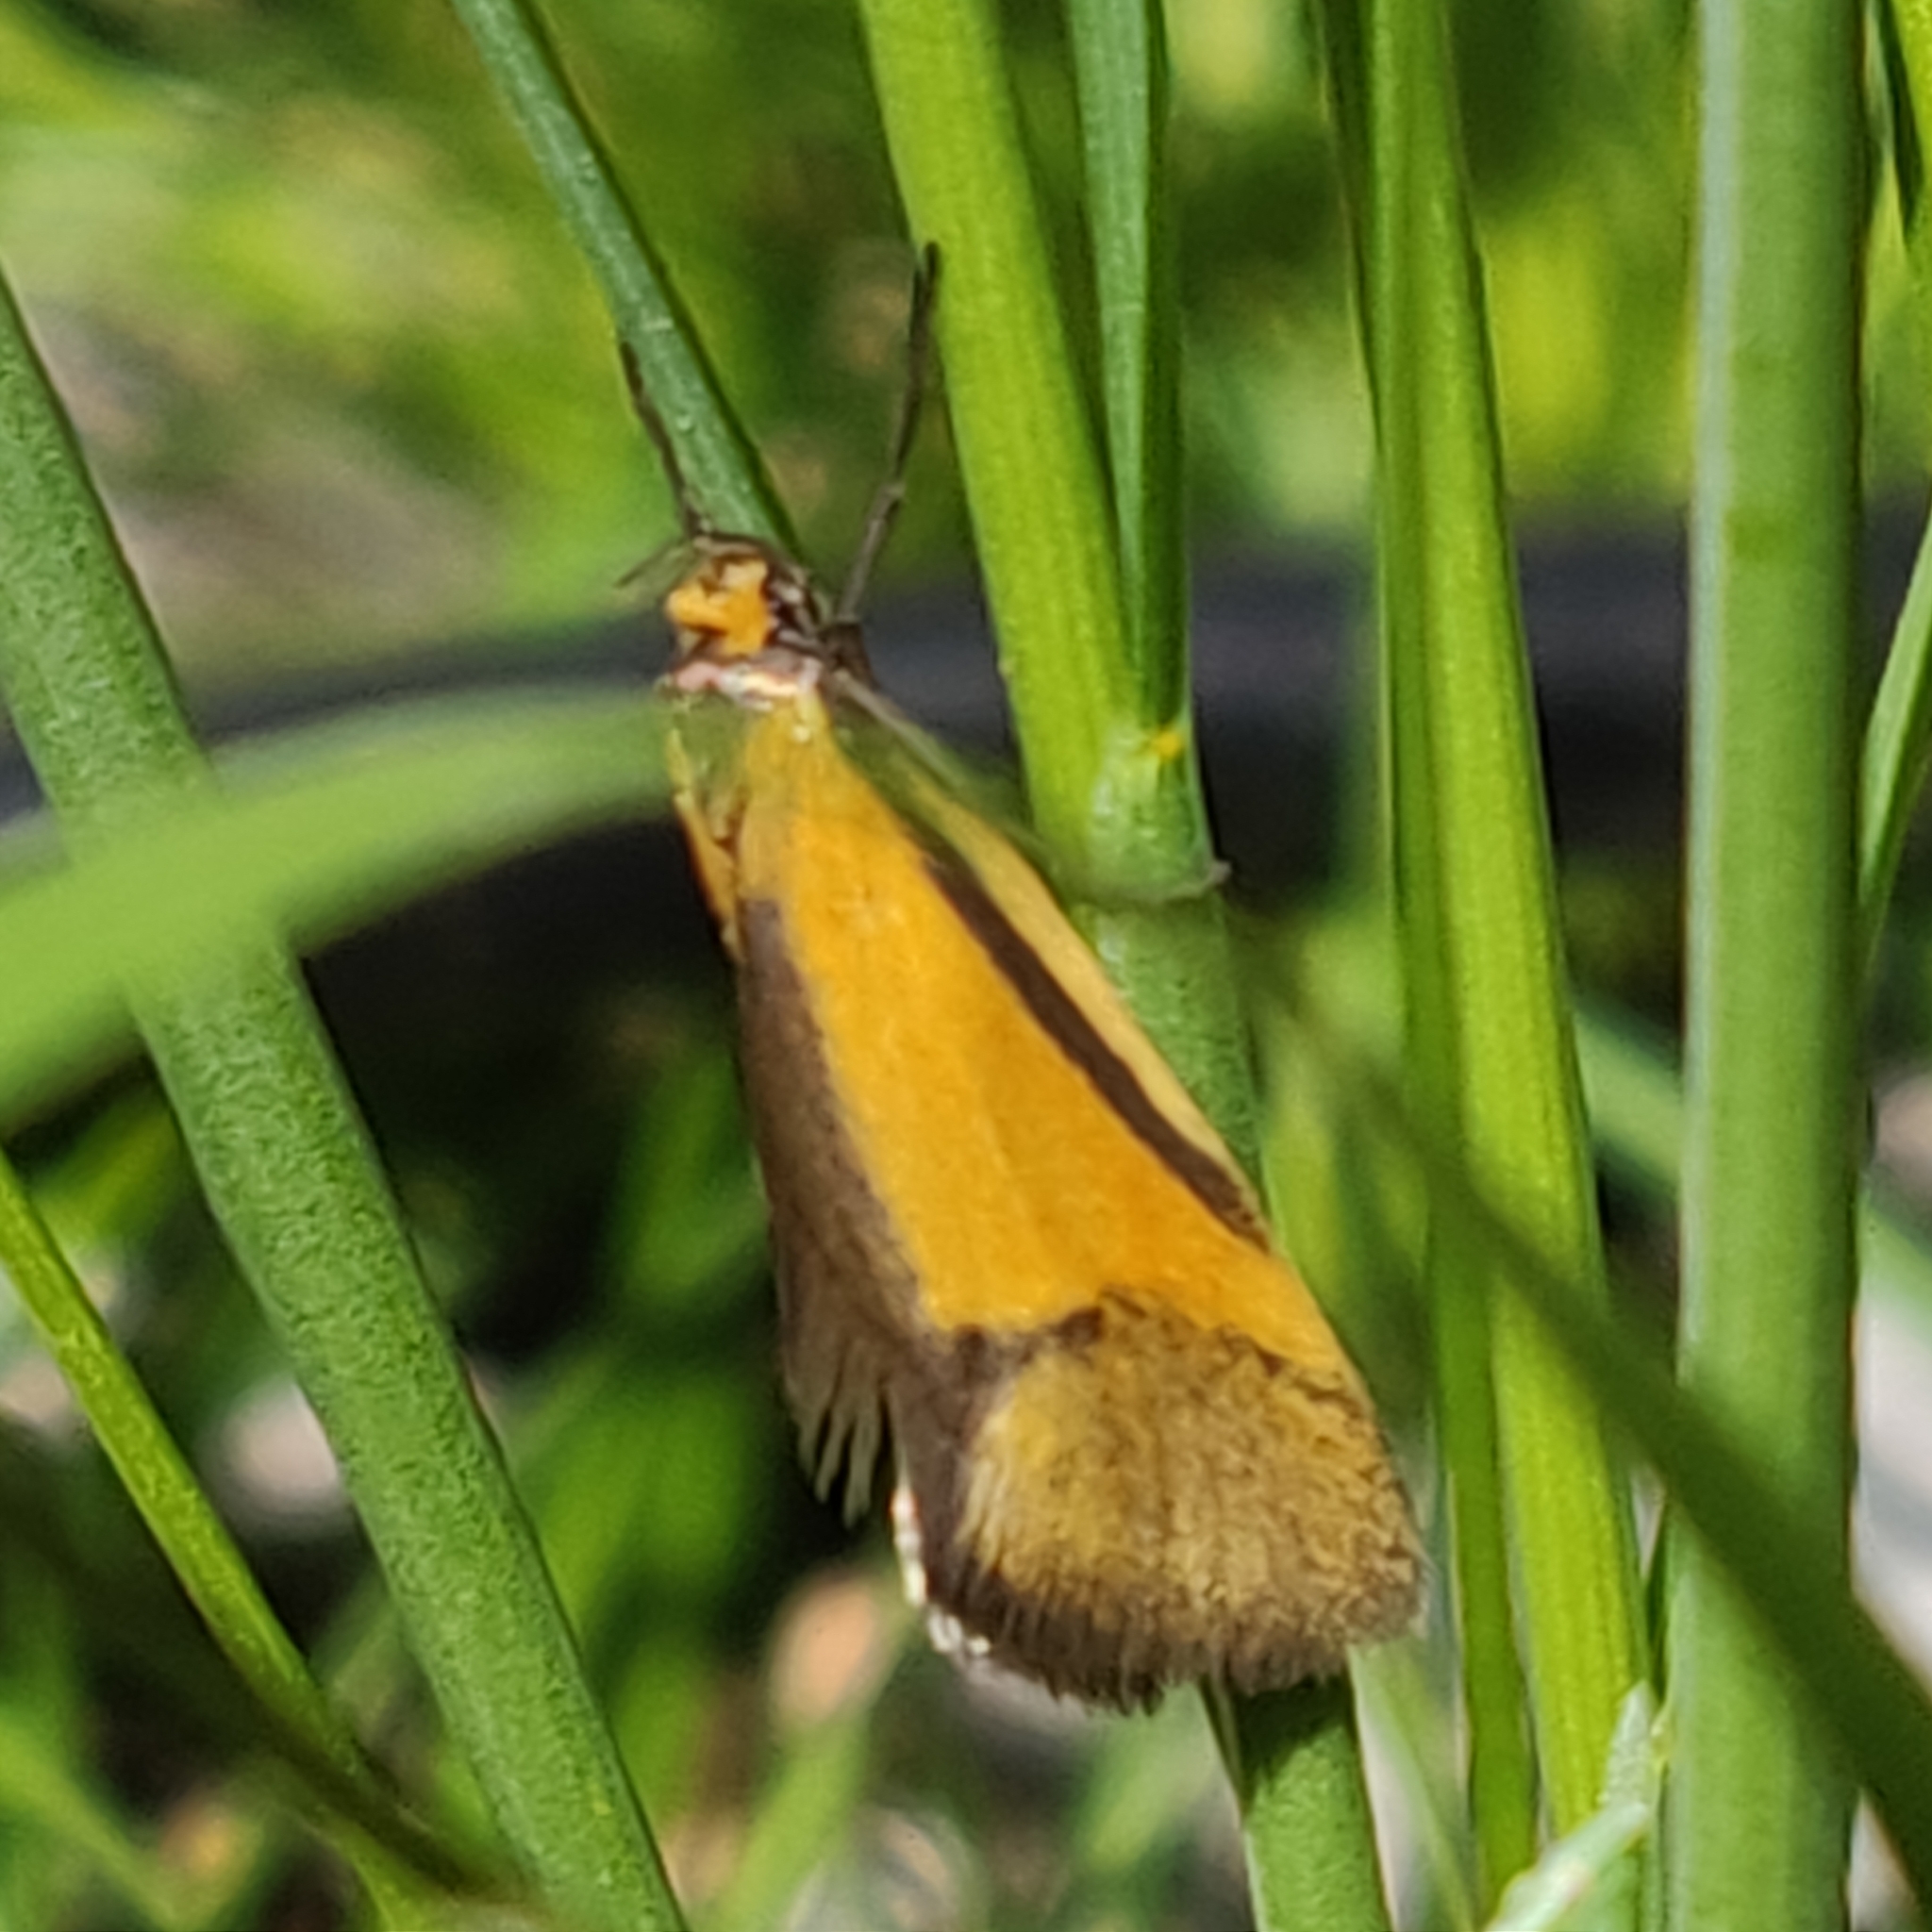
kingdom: Animalia
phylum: Arthropoda
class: Insecta
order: Lepidoptera
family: Oecophoridae
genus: Philobota
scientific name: Philobota arabella
